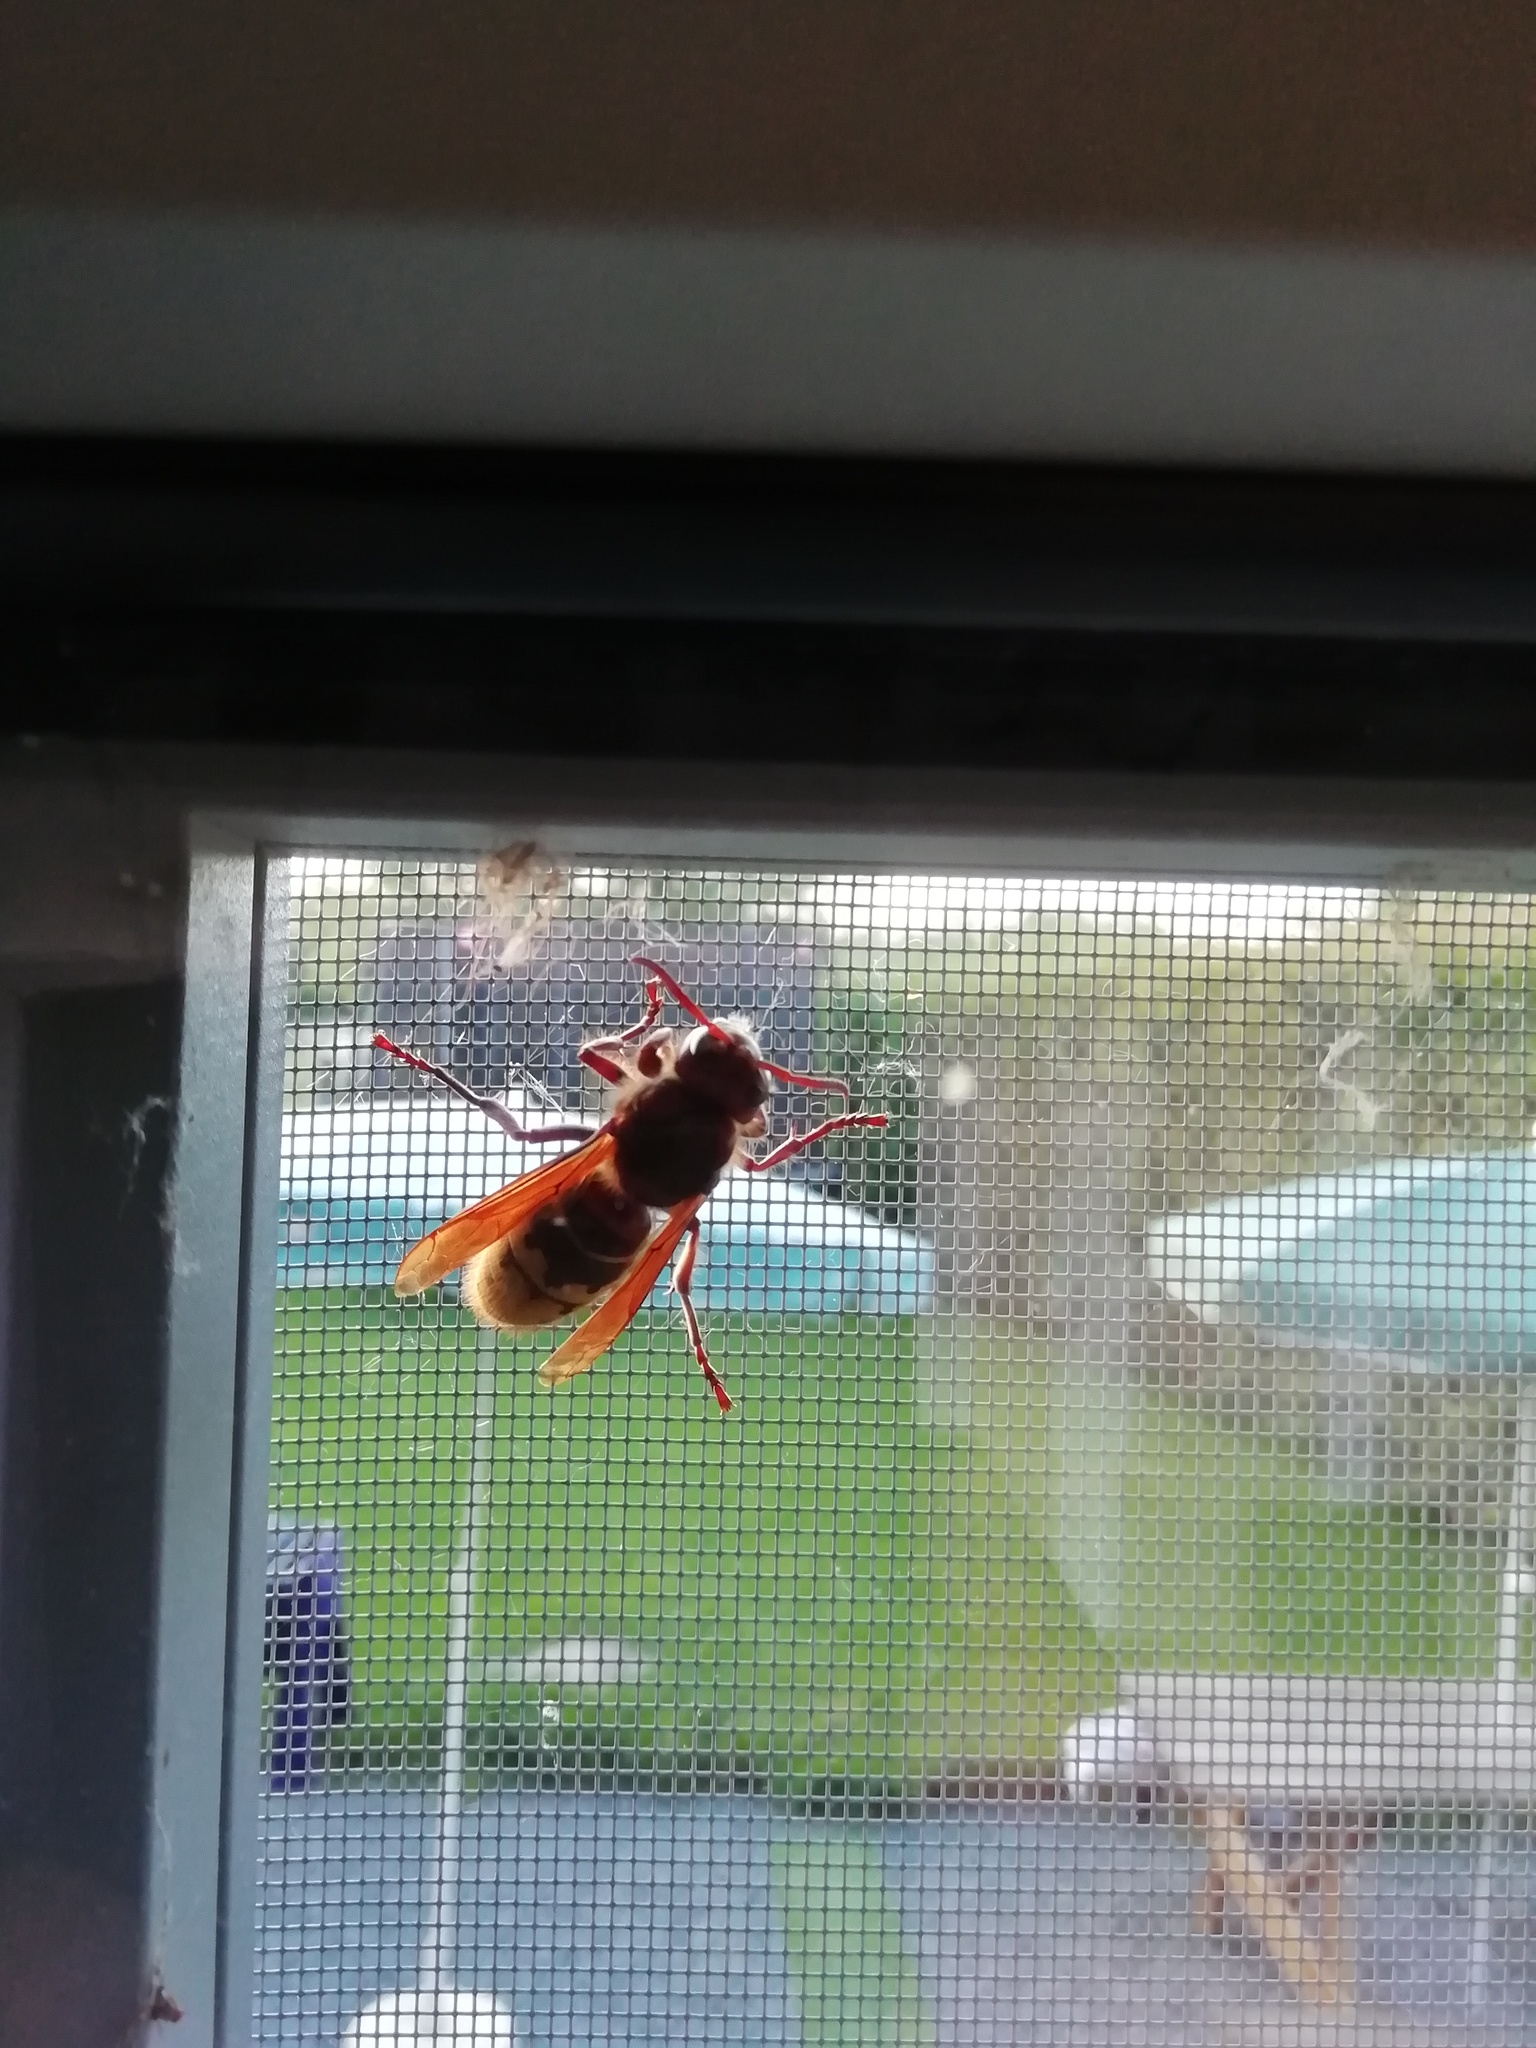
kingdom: Animalia
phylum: Arthropoda
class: Insecta
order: Hymenoptera
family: Vespidae
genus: Vespa
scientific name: Vespa crabro
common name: Hornet
